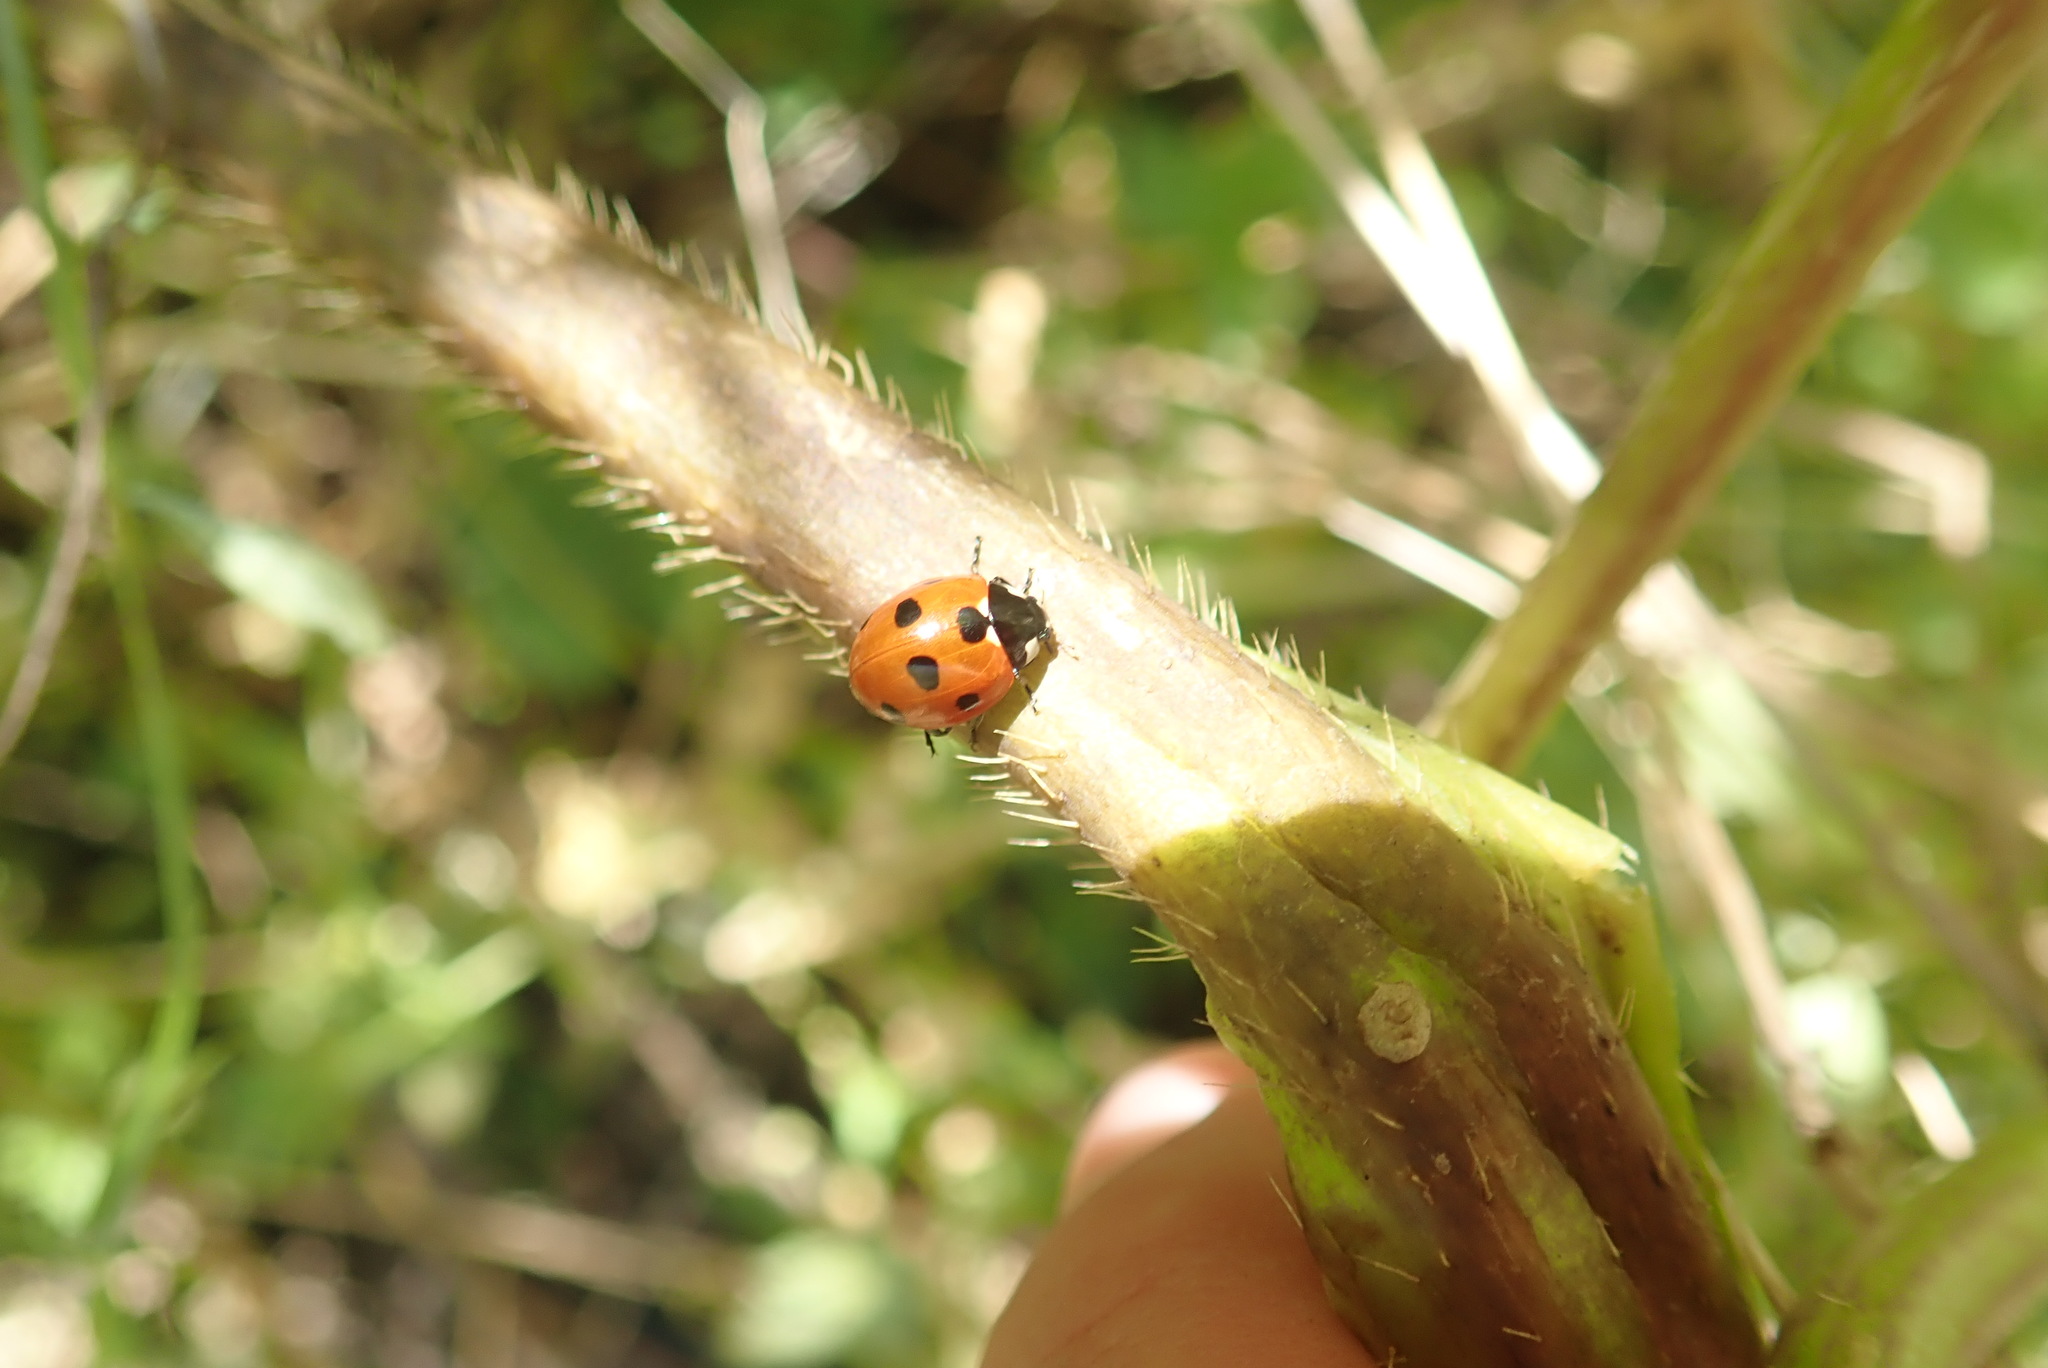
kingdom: Animalia
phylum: Arthropoda
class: Insecta
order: Coleoptera
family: Coccinellidae
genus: Coccinella
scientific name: Coccinella septempunctata
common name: Sevenspotted lady beetle
